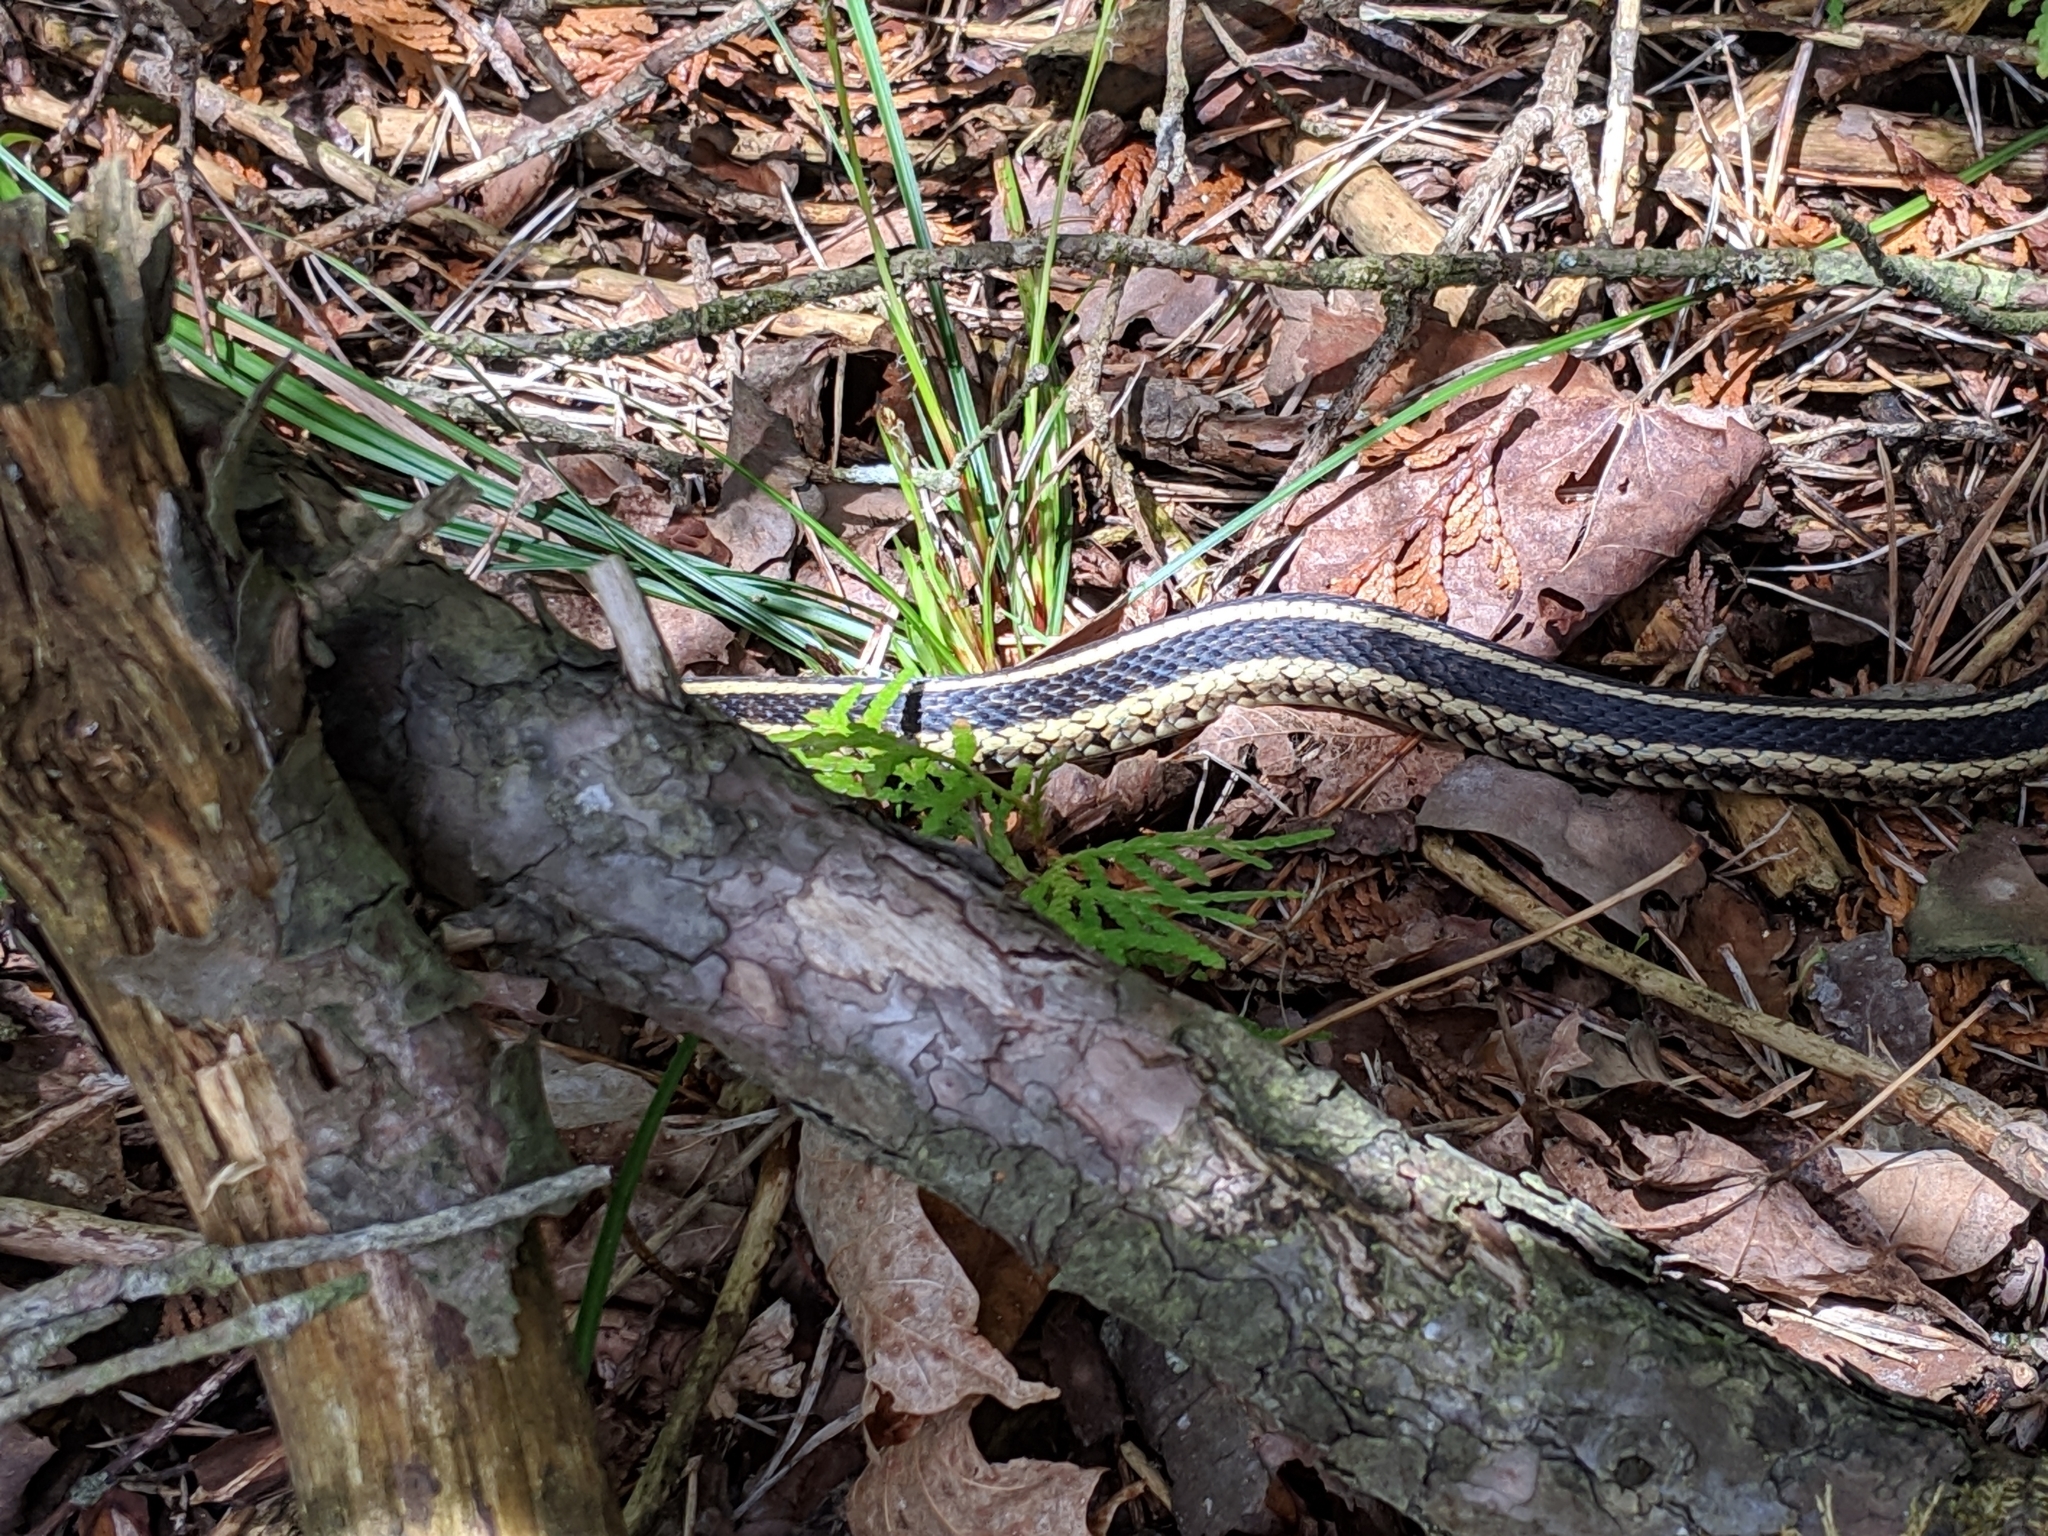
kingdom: Animalia
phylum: Chordata
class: Squamata
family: Colubridae
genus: Thamnophis
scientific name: Thamnophis sirtalis
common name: Common garter snake
